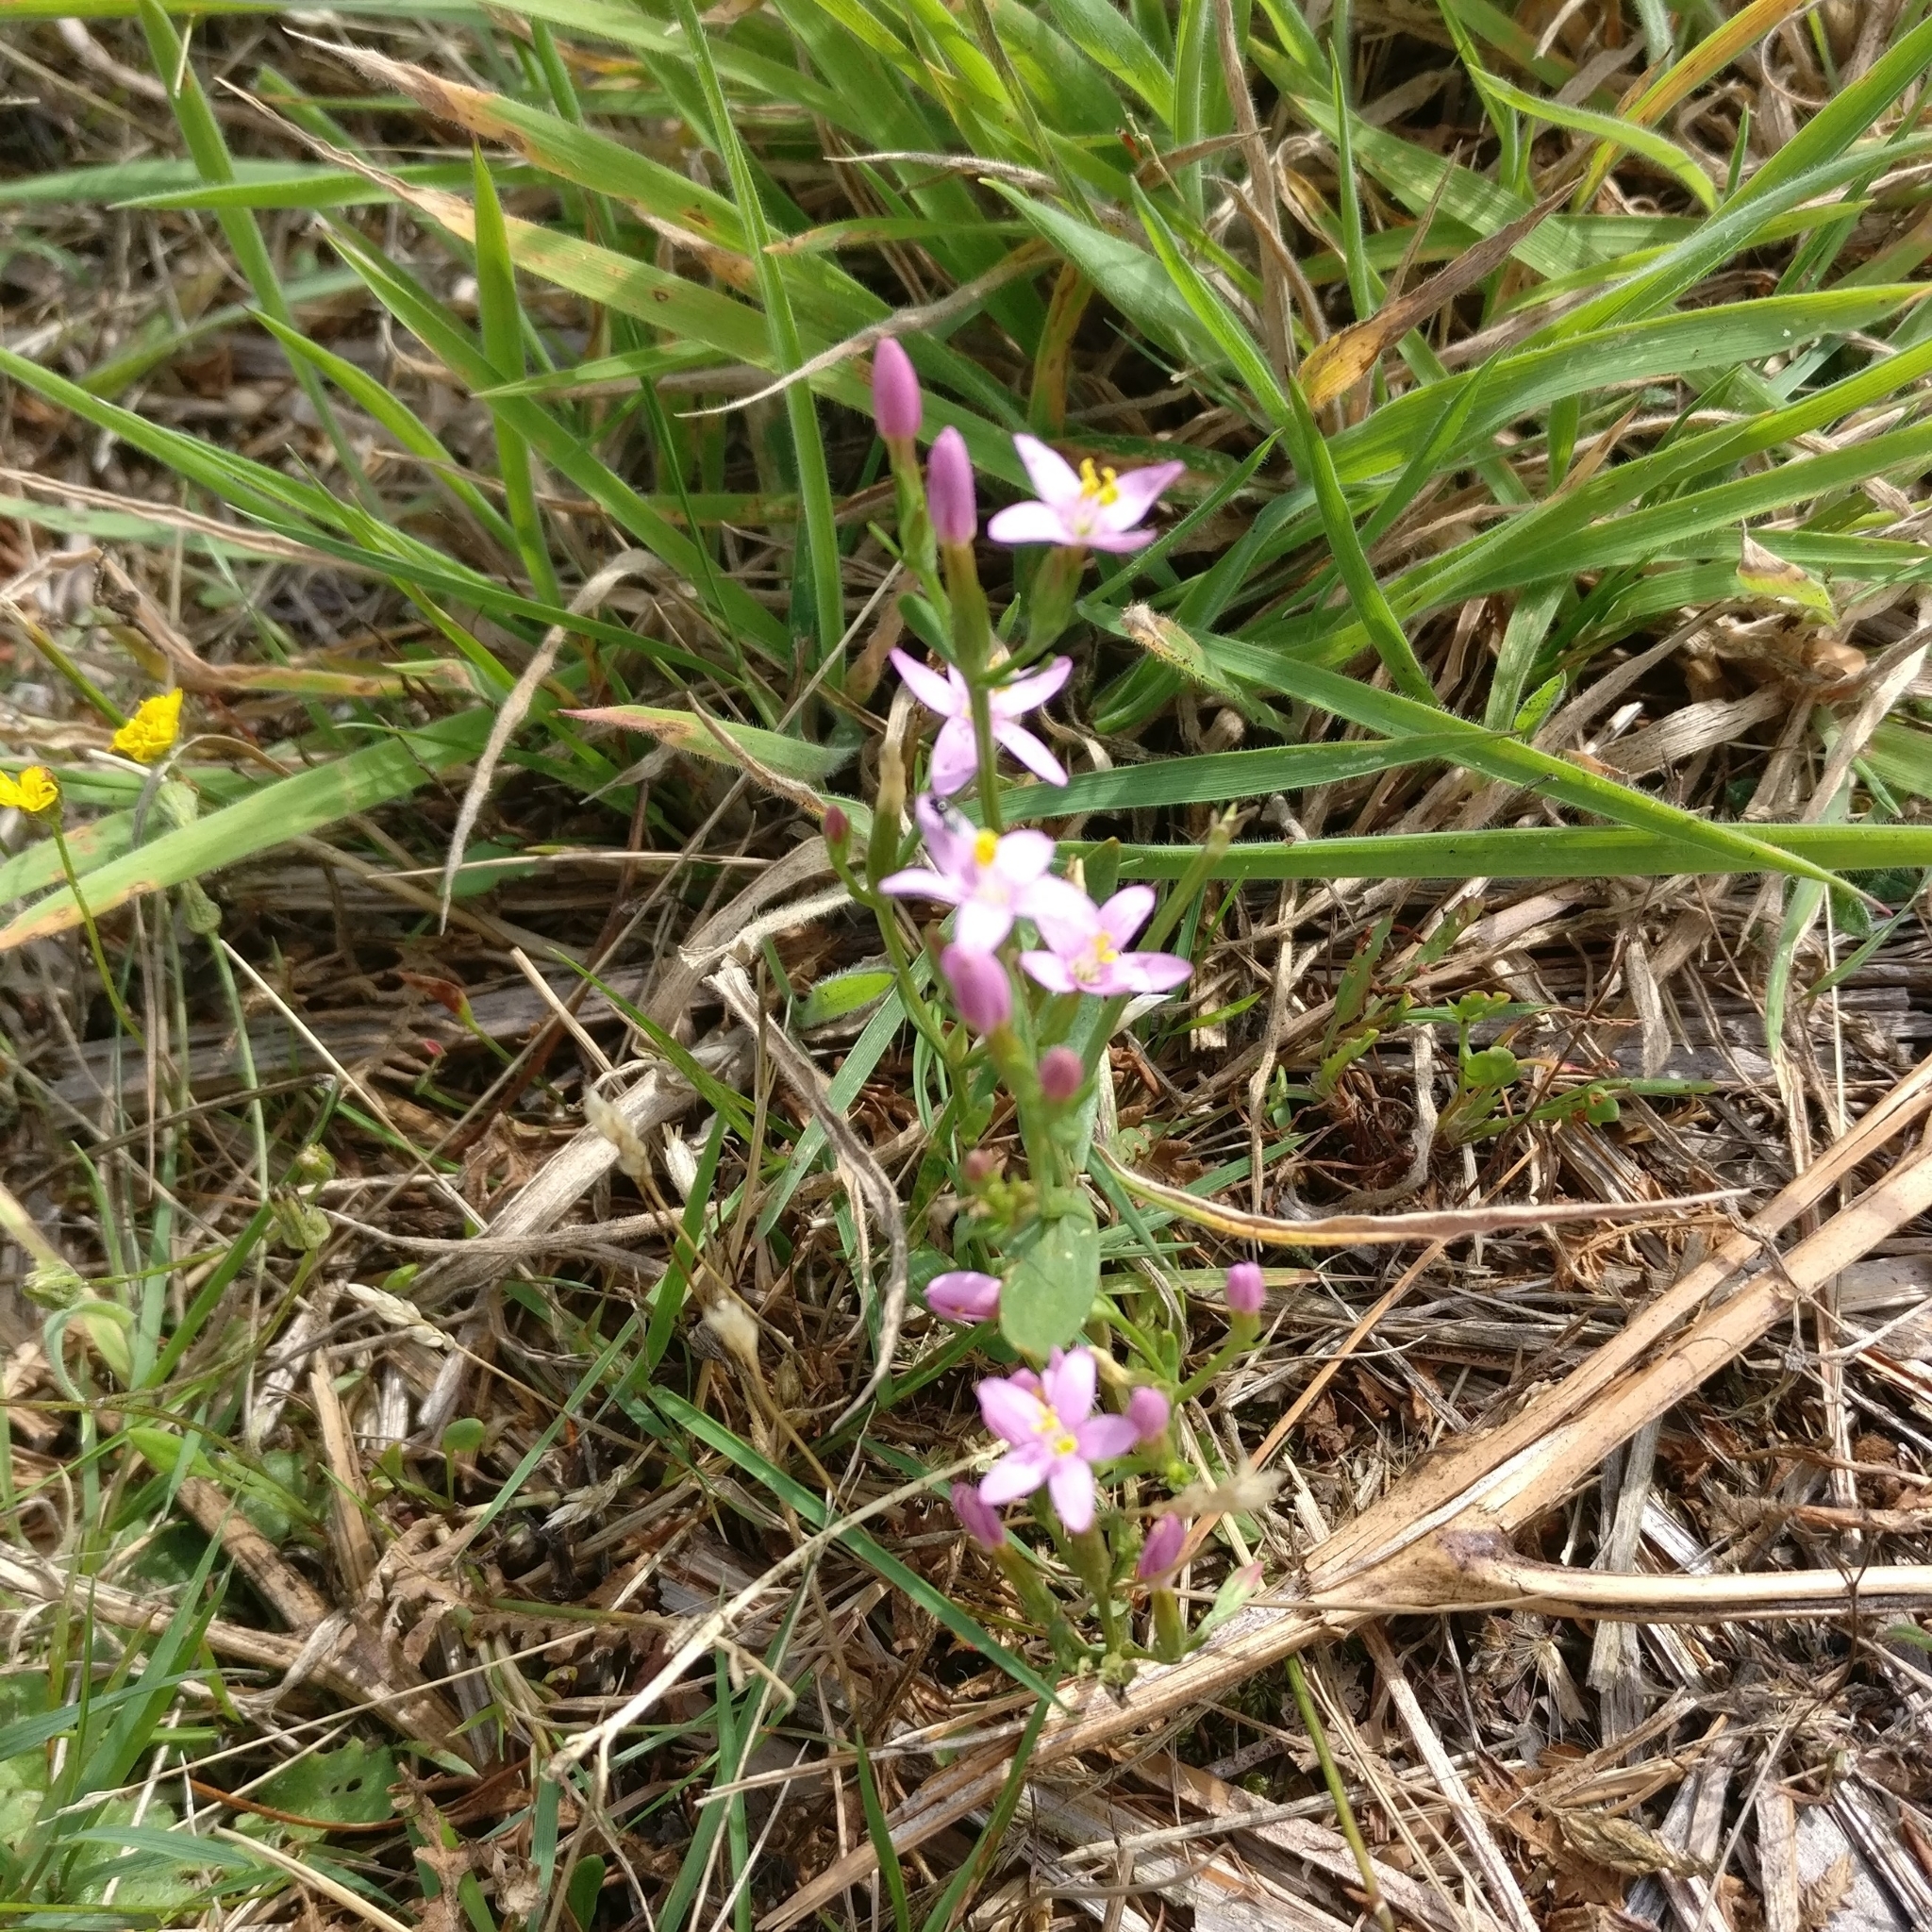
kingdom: Plantae
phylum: Tracheophyta
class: Magnoliopsida
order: Gentianales
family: Gentianaceae
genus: Centaurium
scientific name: Centaurium erythraea
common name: Common centaury
